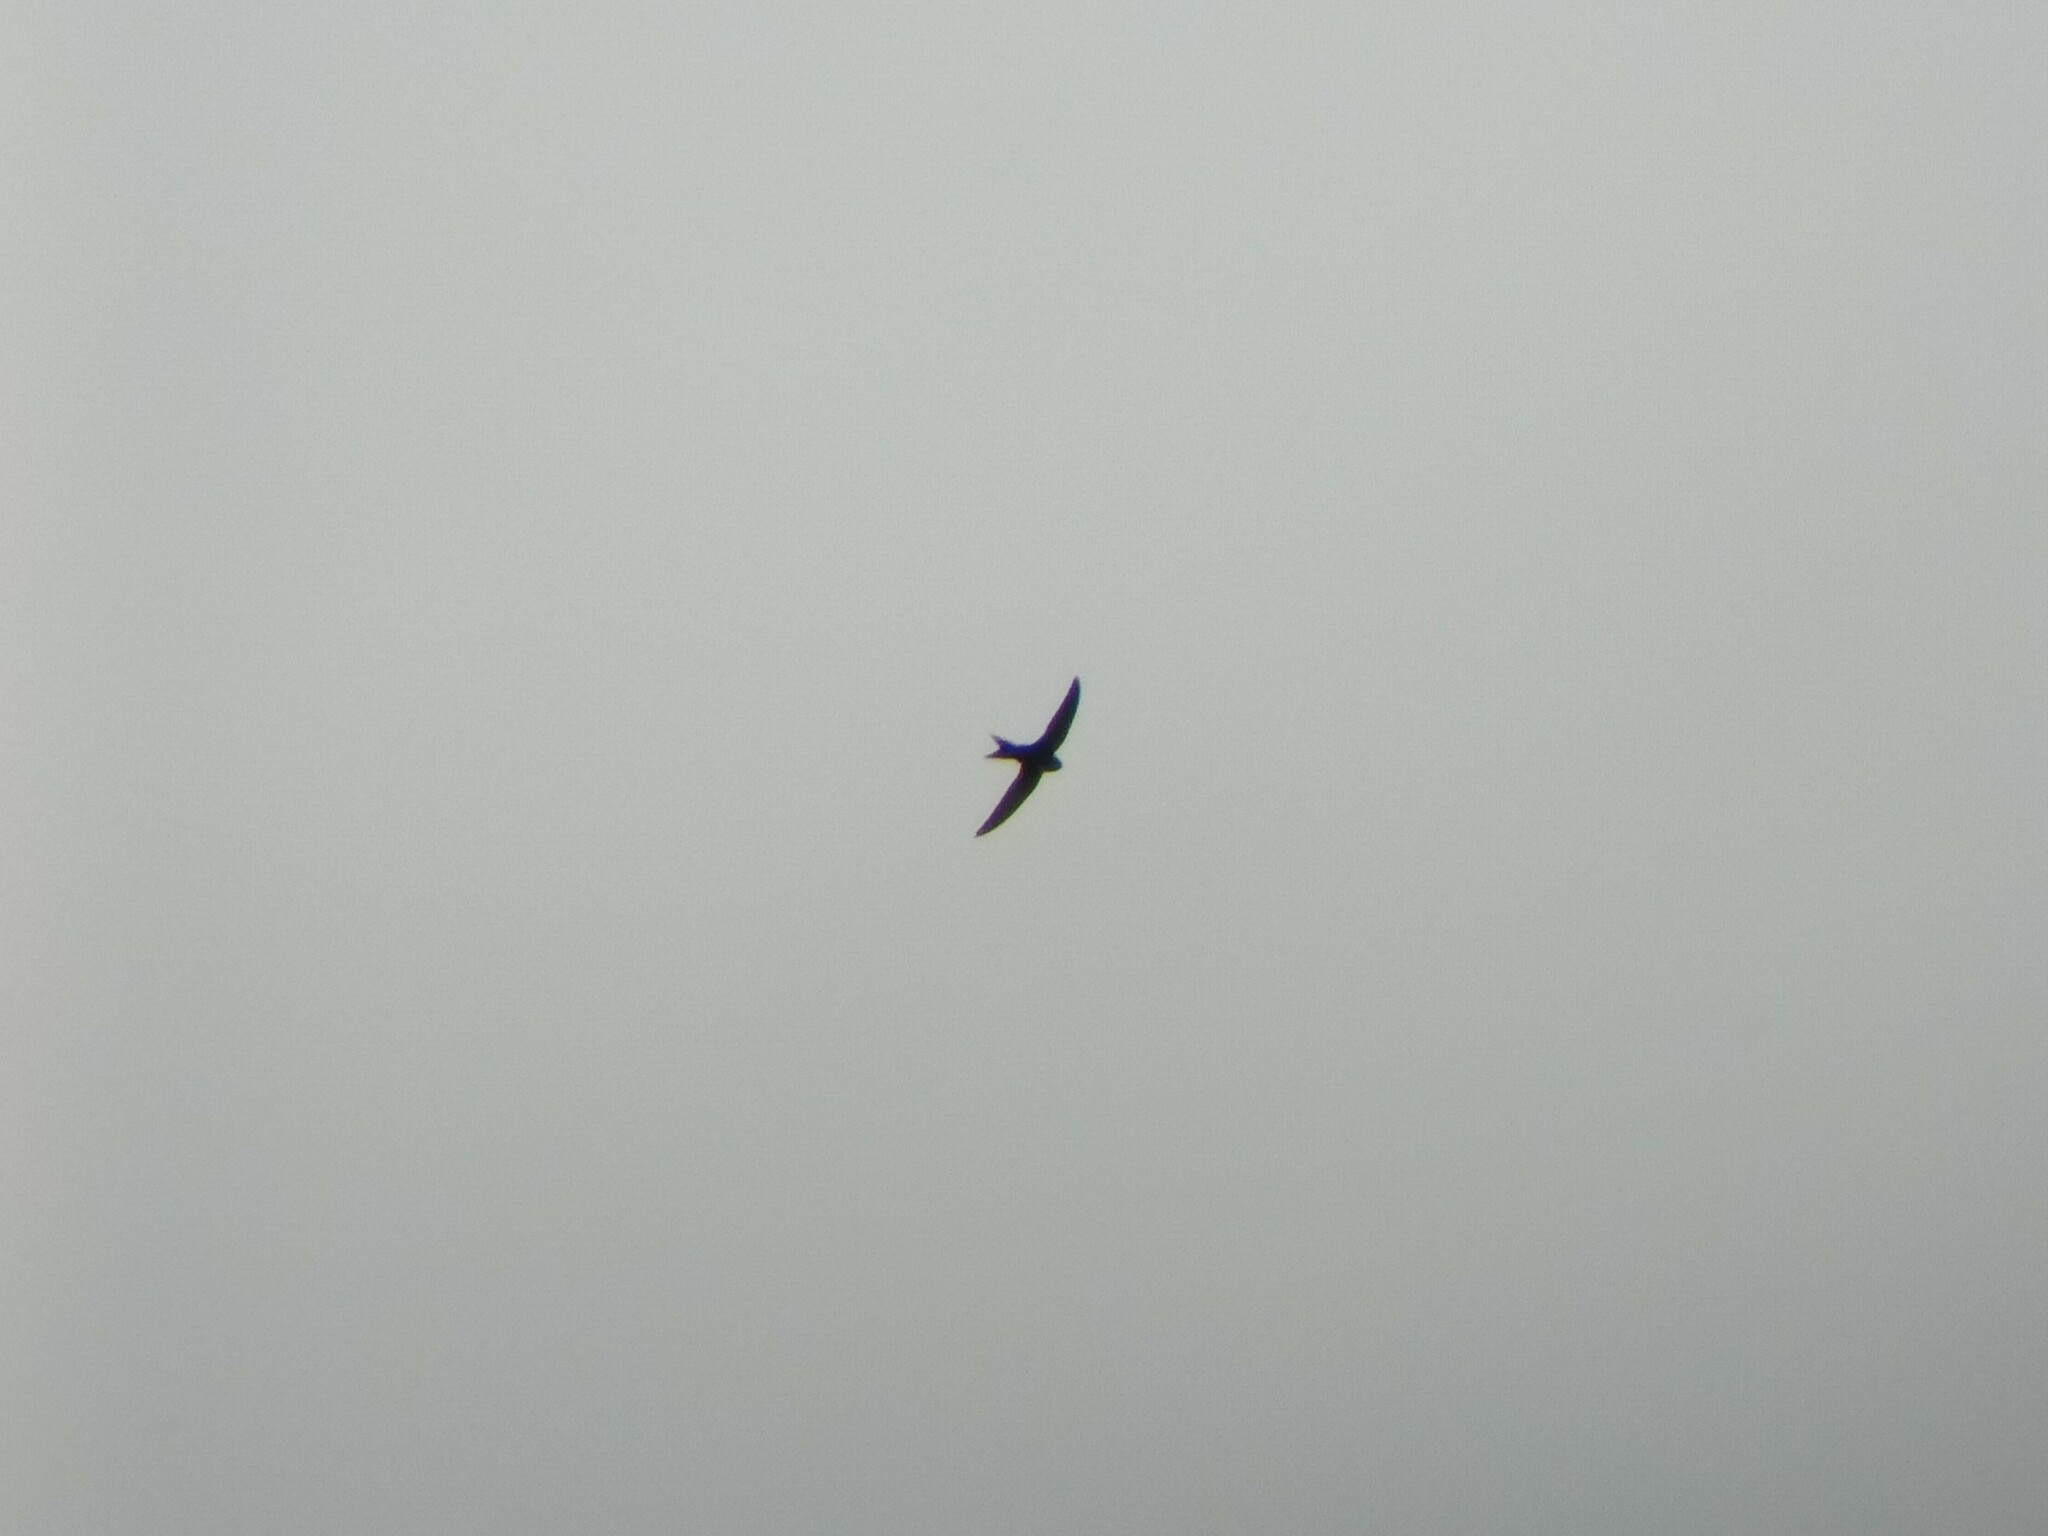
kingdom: Animalia
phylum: Chordata
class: Aves
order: Apodiformes
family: Apodidae
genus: Apus
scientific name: Apus apus
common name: Common swift
